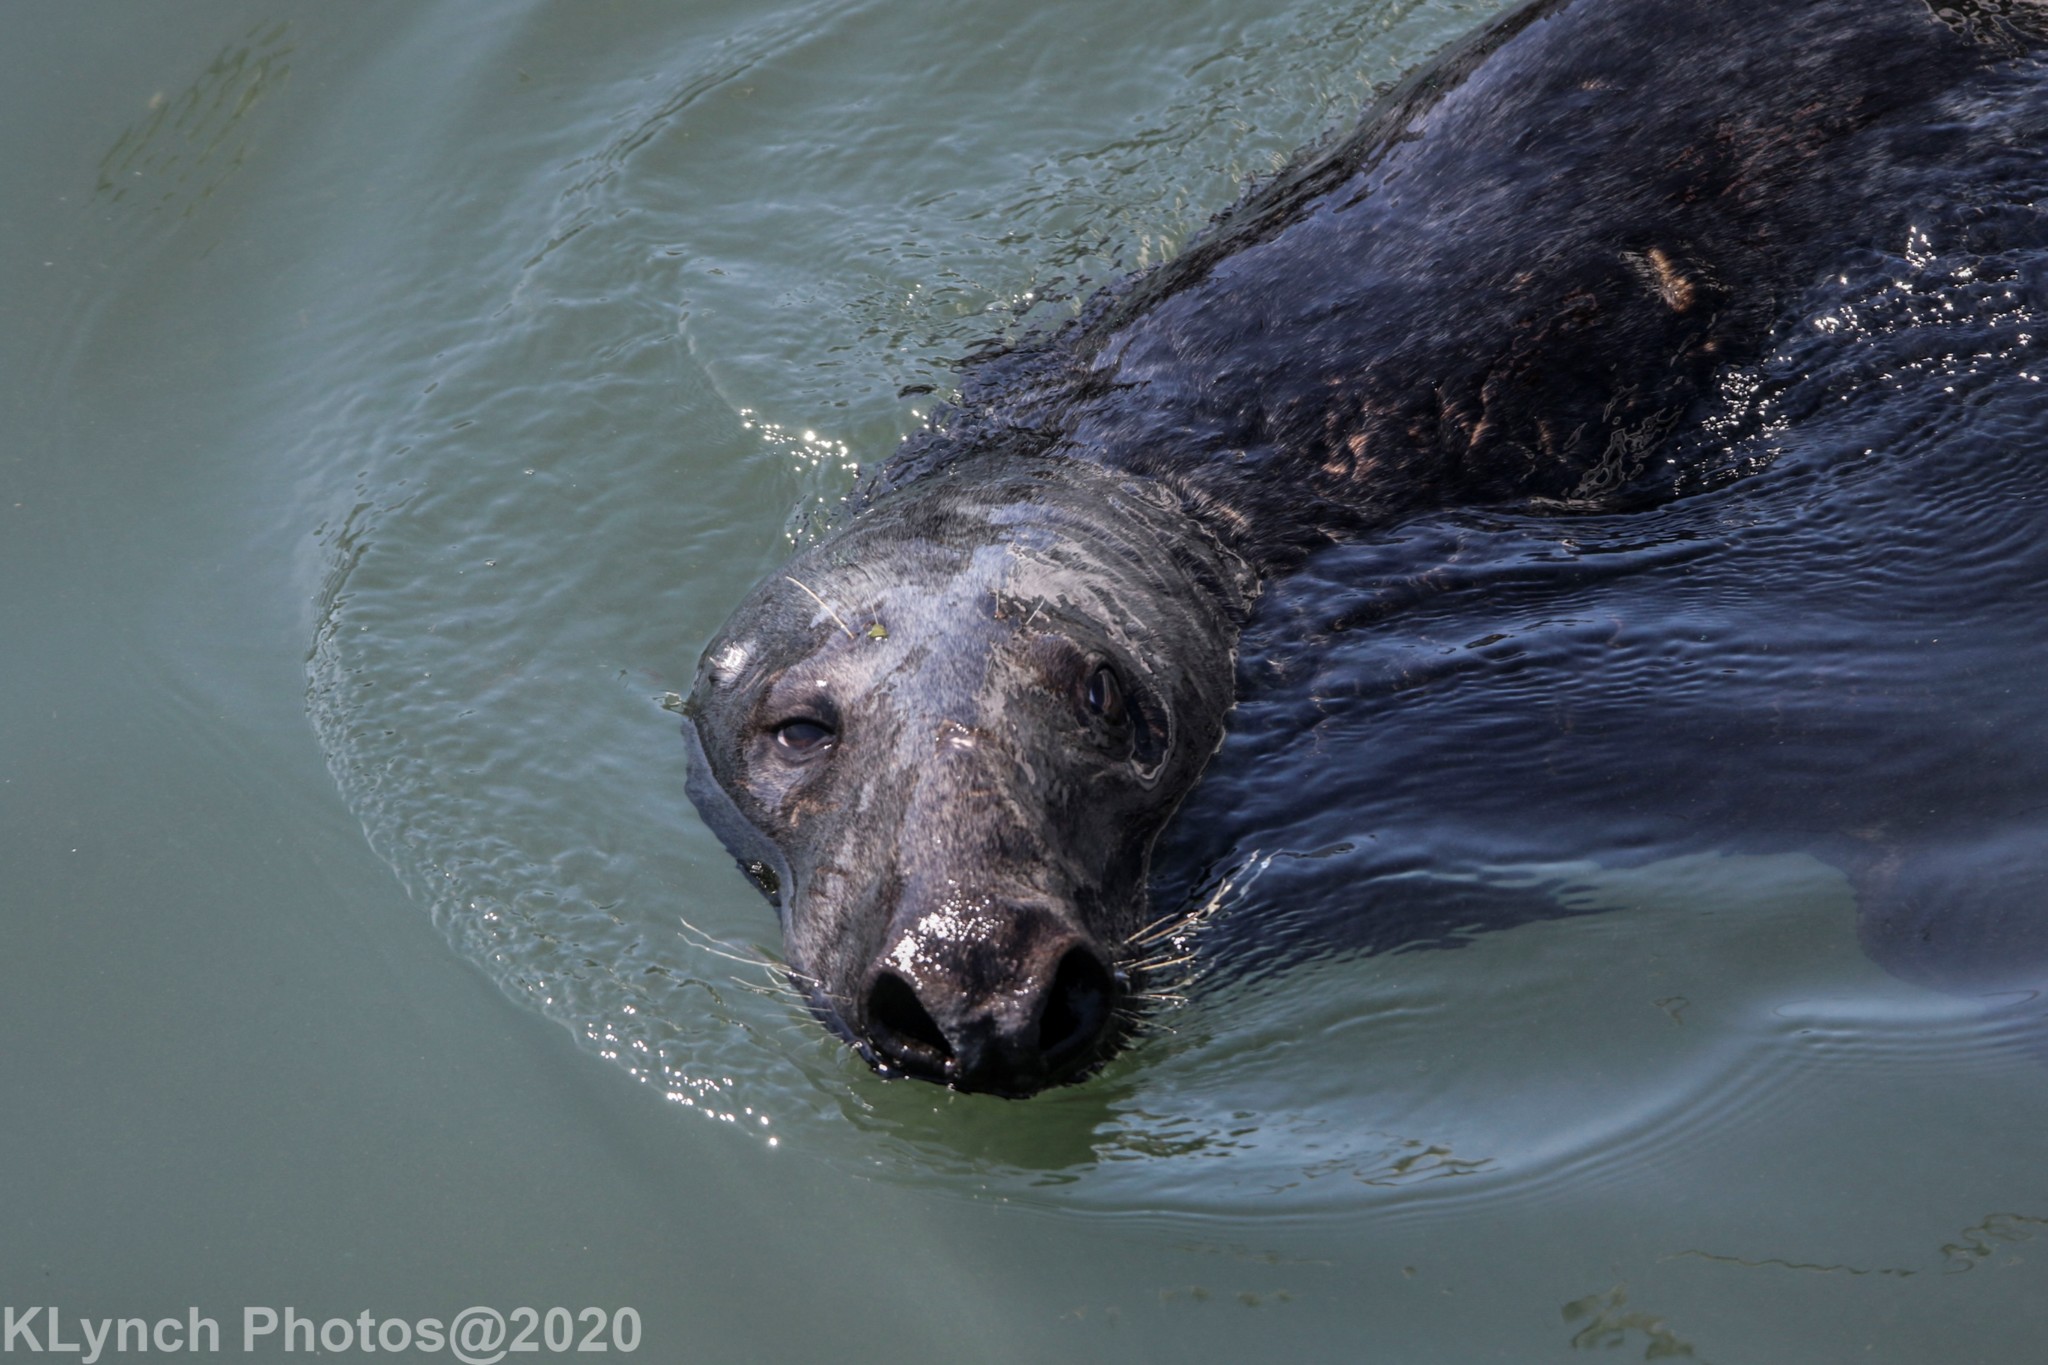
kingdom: Animalia
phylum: Chordata
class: Mammalia
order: Carnivora
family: Phocidae
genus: Halichoerus
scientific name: Halichoerus grypus
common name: Grey seal
